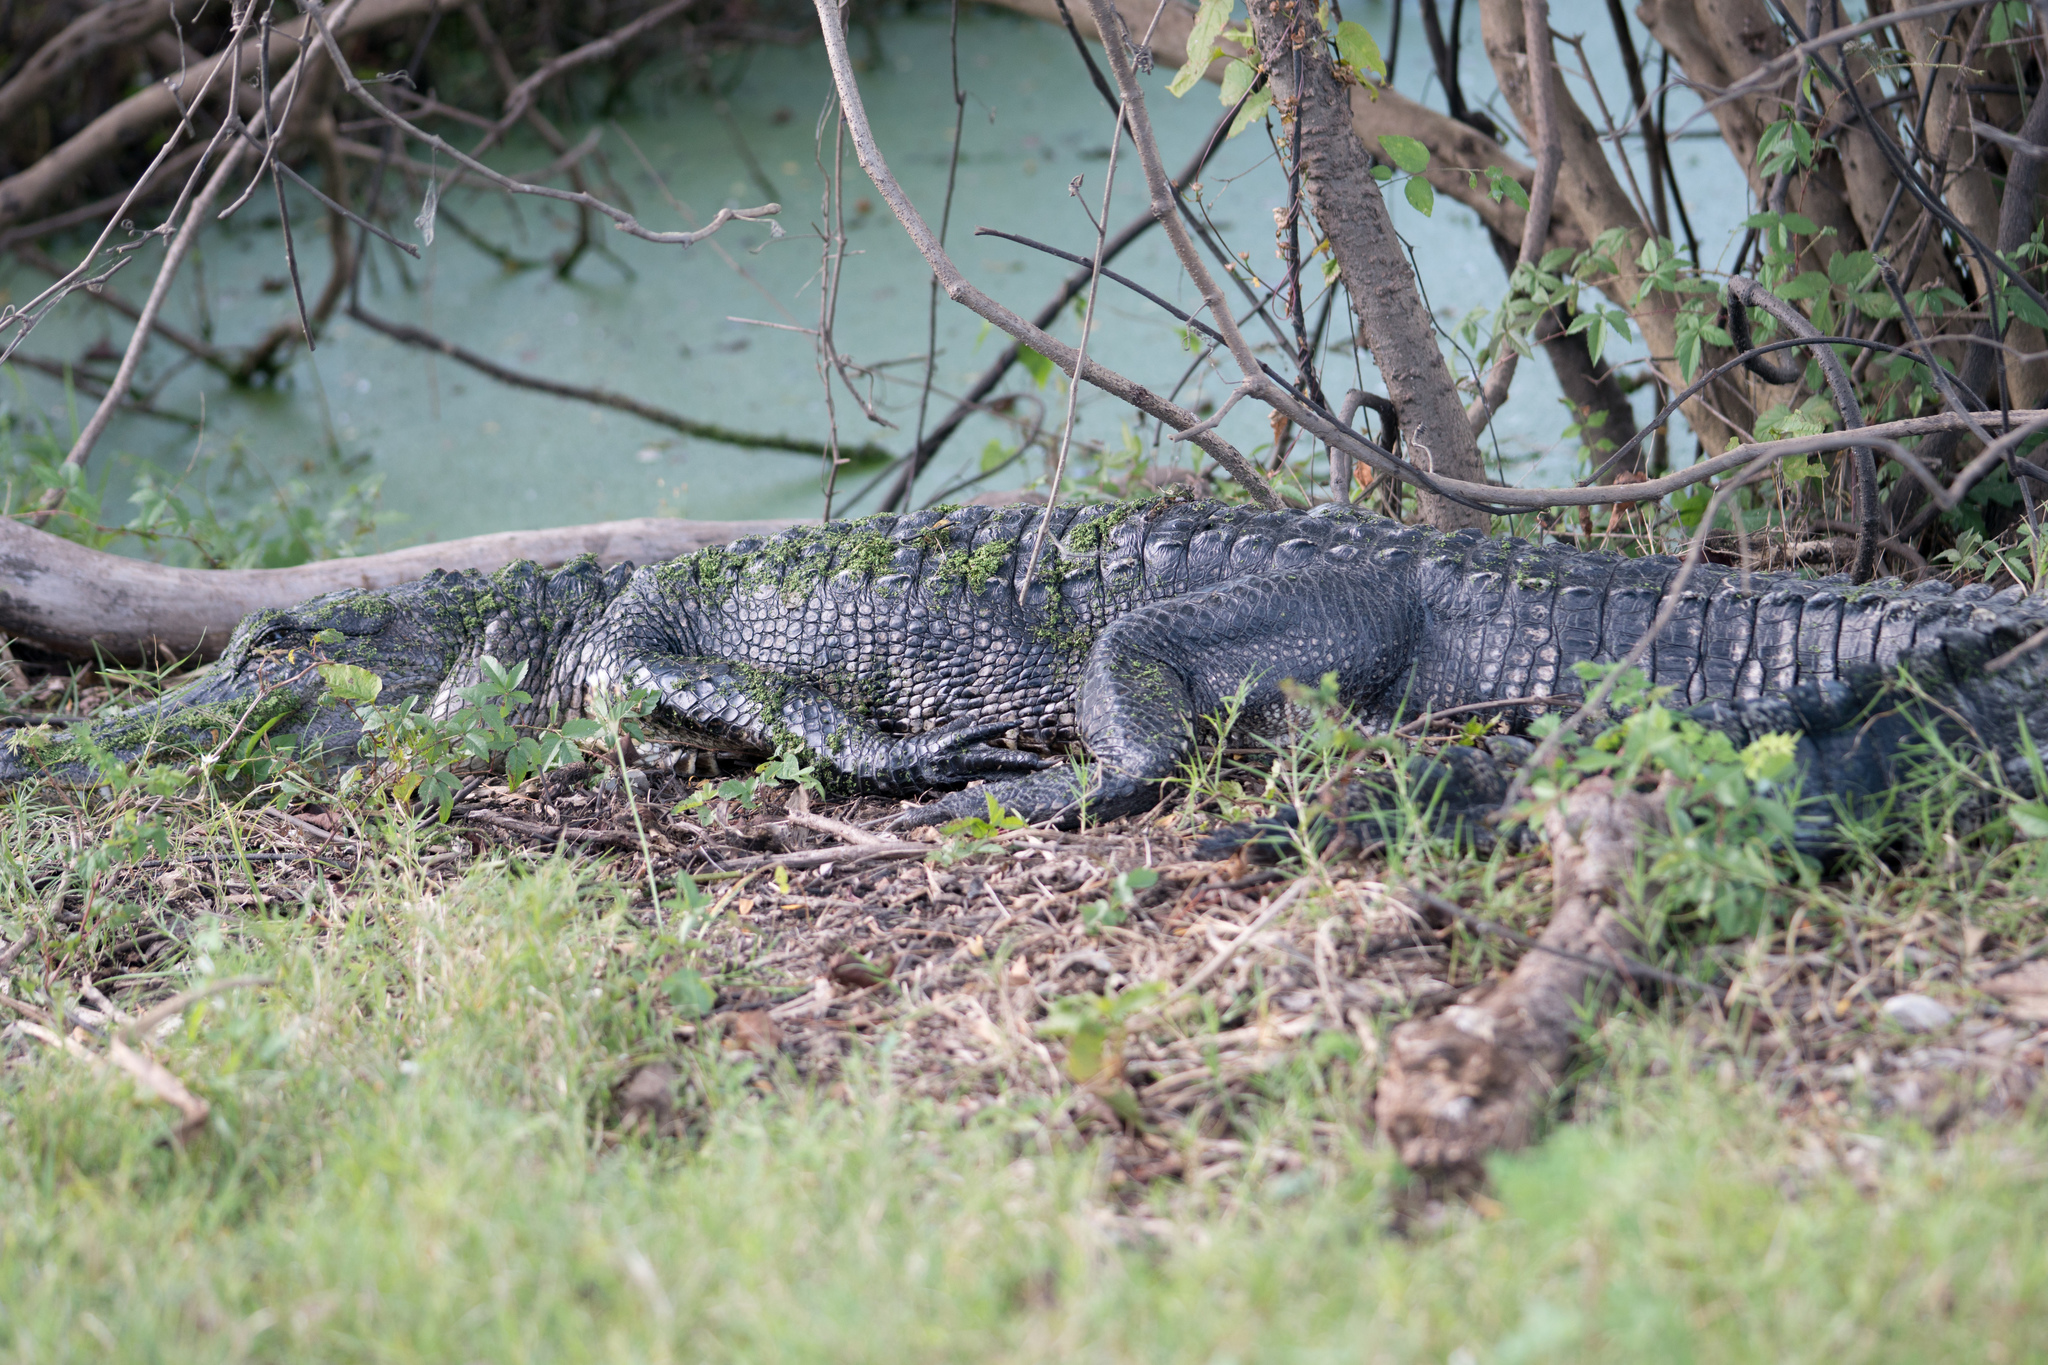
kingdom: Animalia
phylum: Chordata
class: Crocodylia
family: Alligatoridae
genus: Alligator
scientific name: Alligator mississippiensis
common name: American alligator
